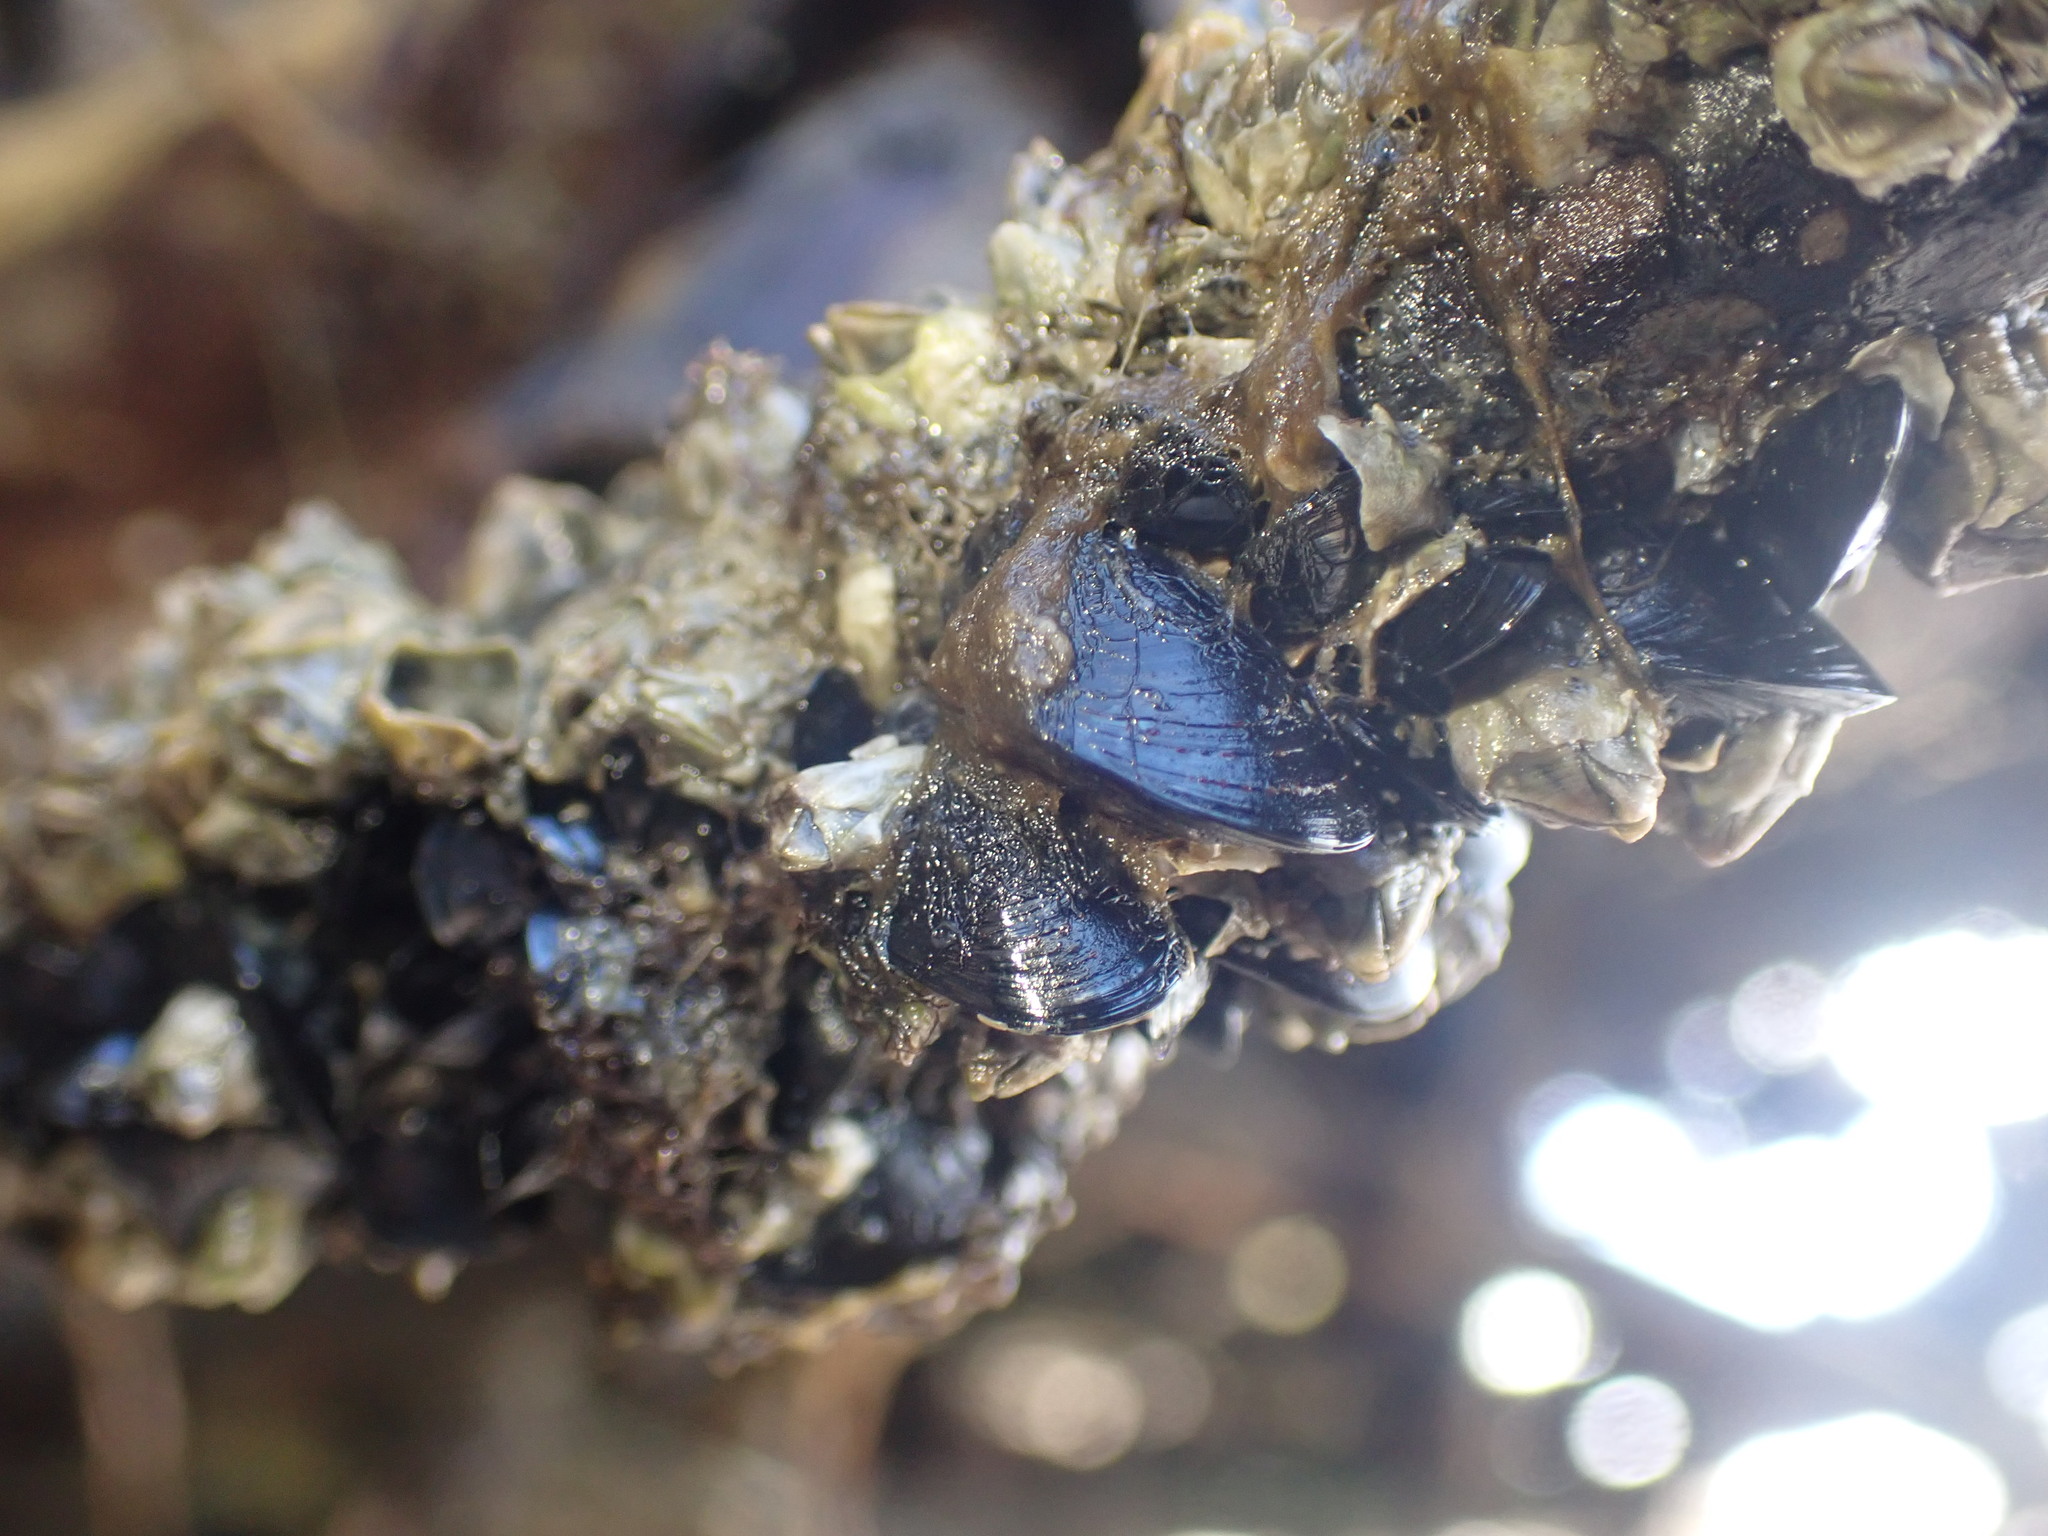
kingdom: Animalia
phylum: Mollusca
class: Bivalvia
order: Mytilida
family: Mytilidae
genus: Xenostrobus
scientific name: Xenostrobus neozelanicus
